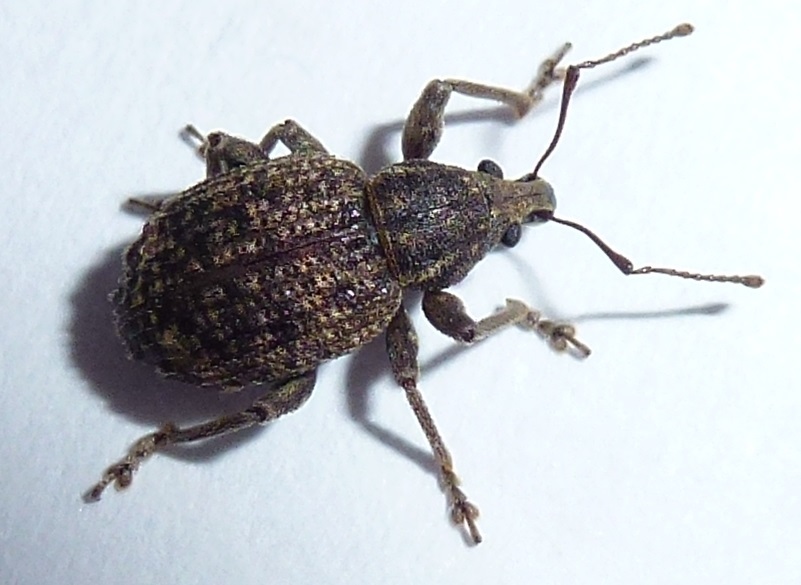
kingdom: Animalia
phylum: Arthropoda
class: Insecta
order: Coleoptera
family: Curculionidae
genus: Phlyctinus
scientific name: Phlyctinus callosus
